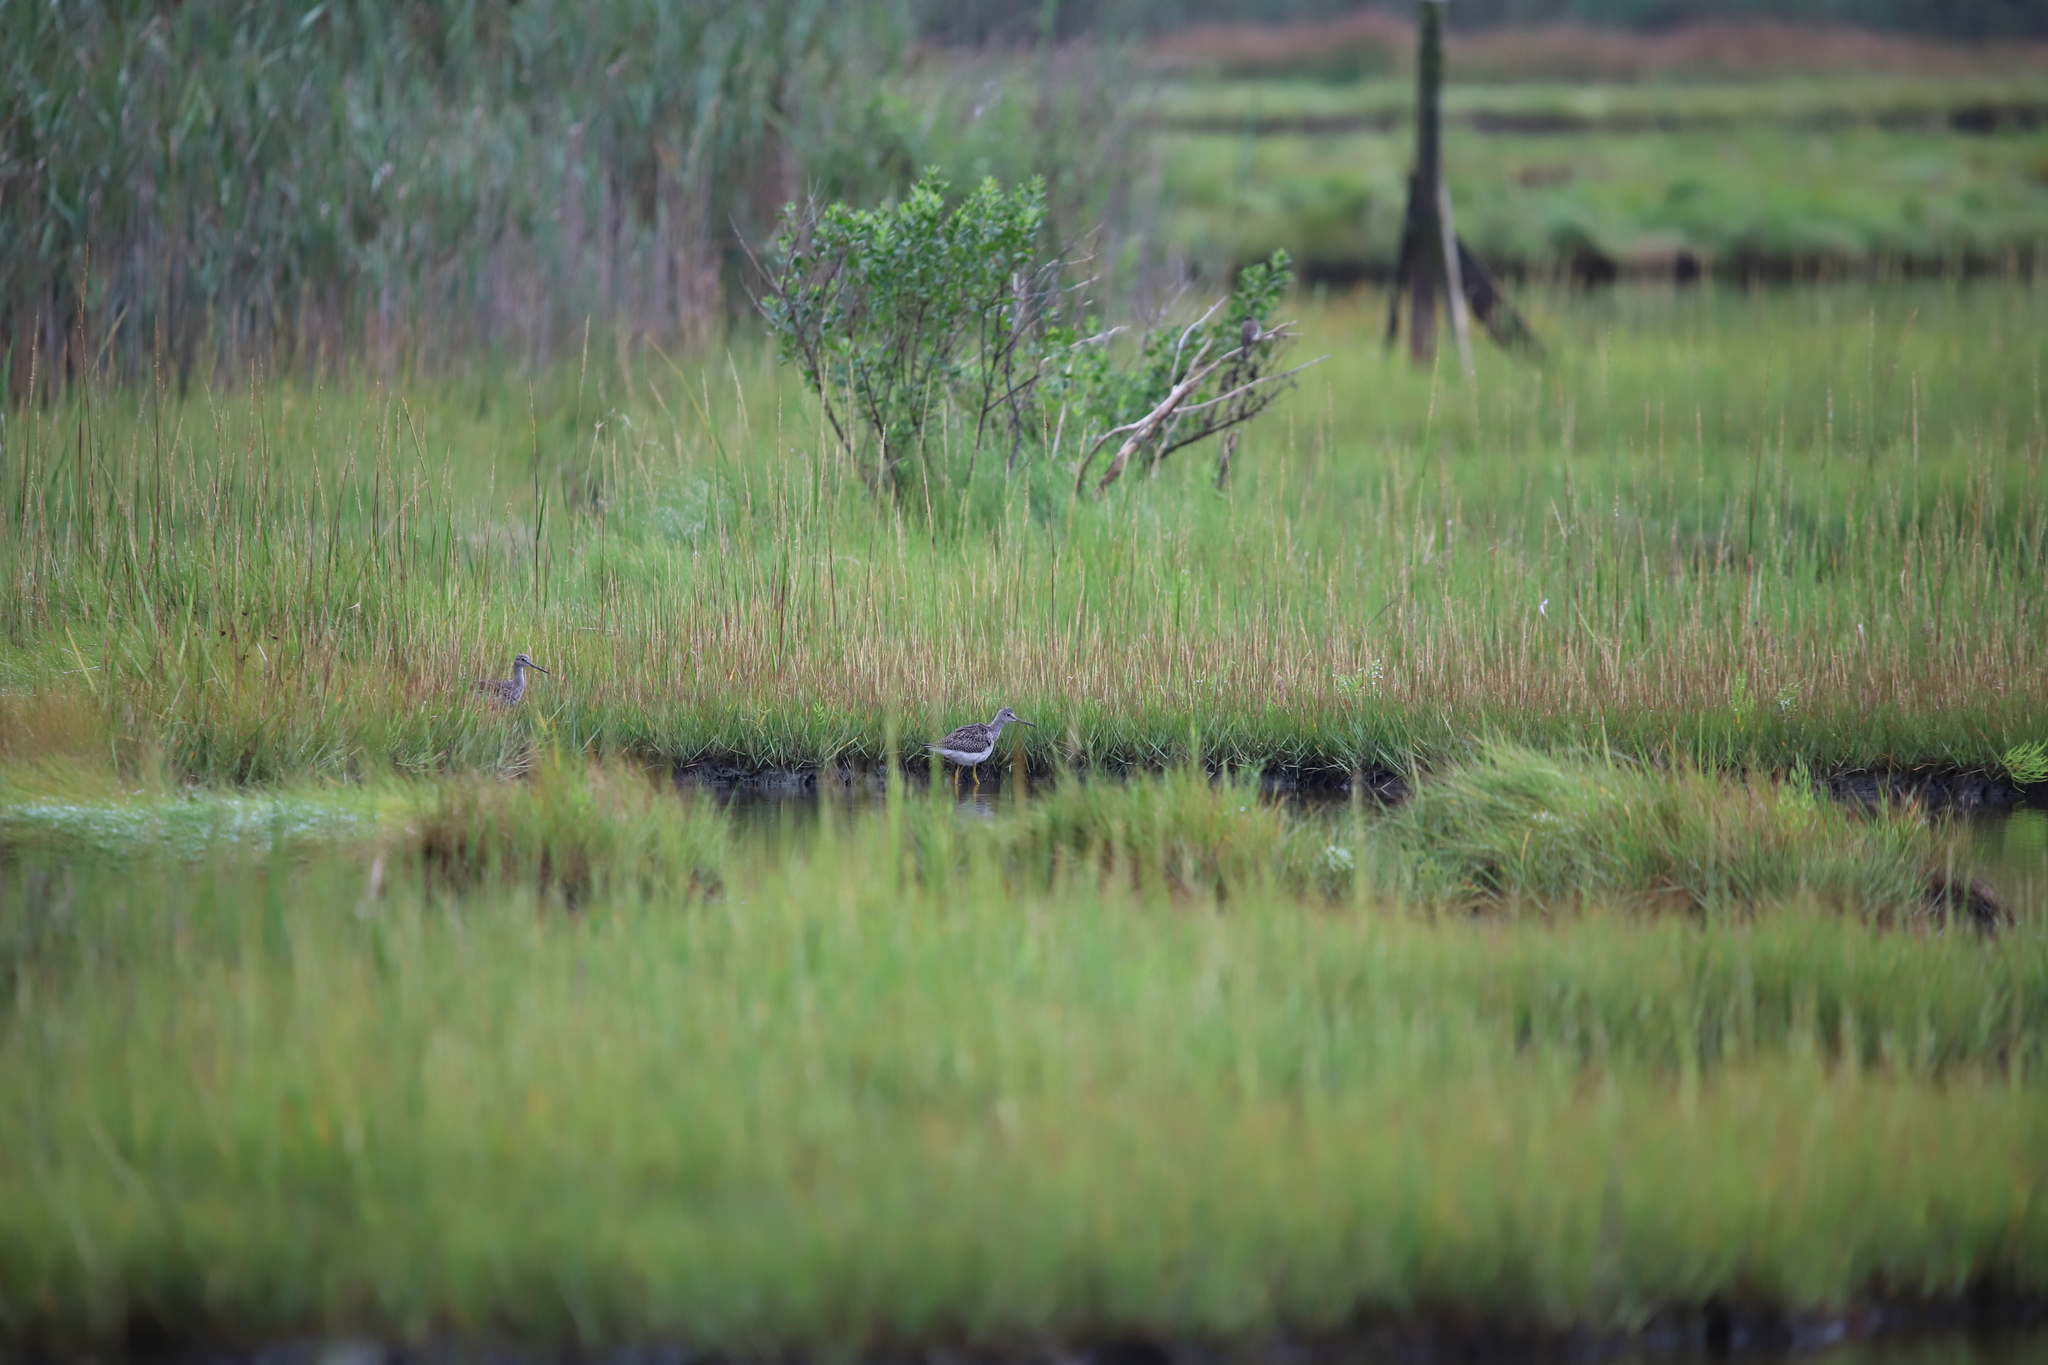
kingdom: Animalia
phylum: Chordata
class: Aves
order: Charadriiformes
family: Scolopacidae
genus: Tringa
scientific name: Tringa melanoleuca
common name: Greater yellowlegs
